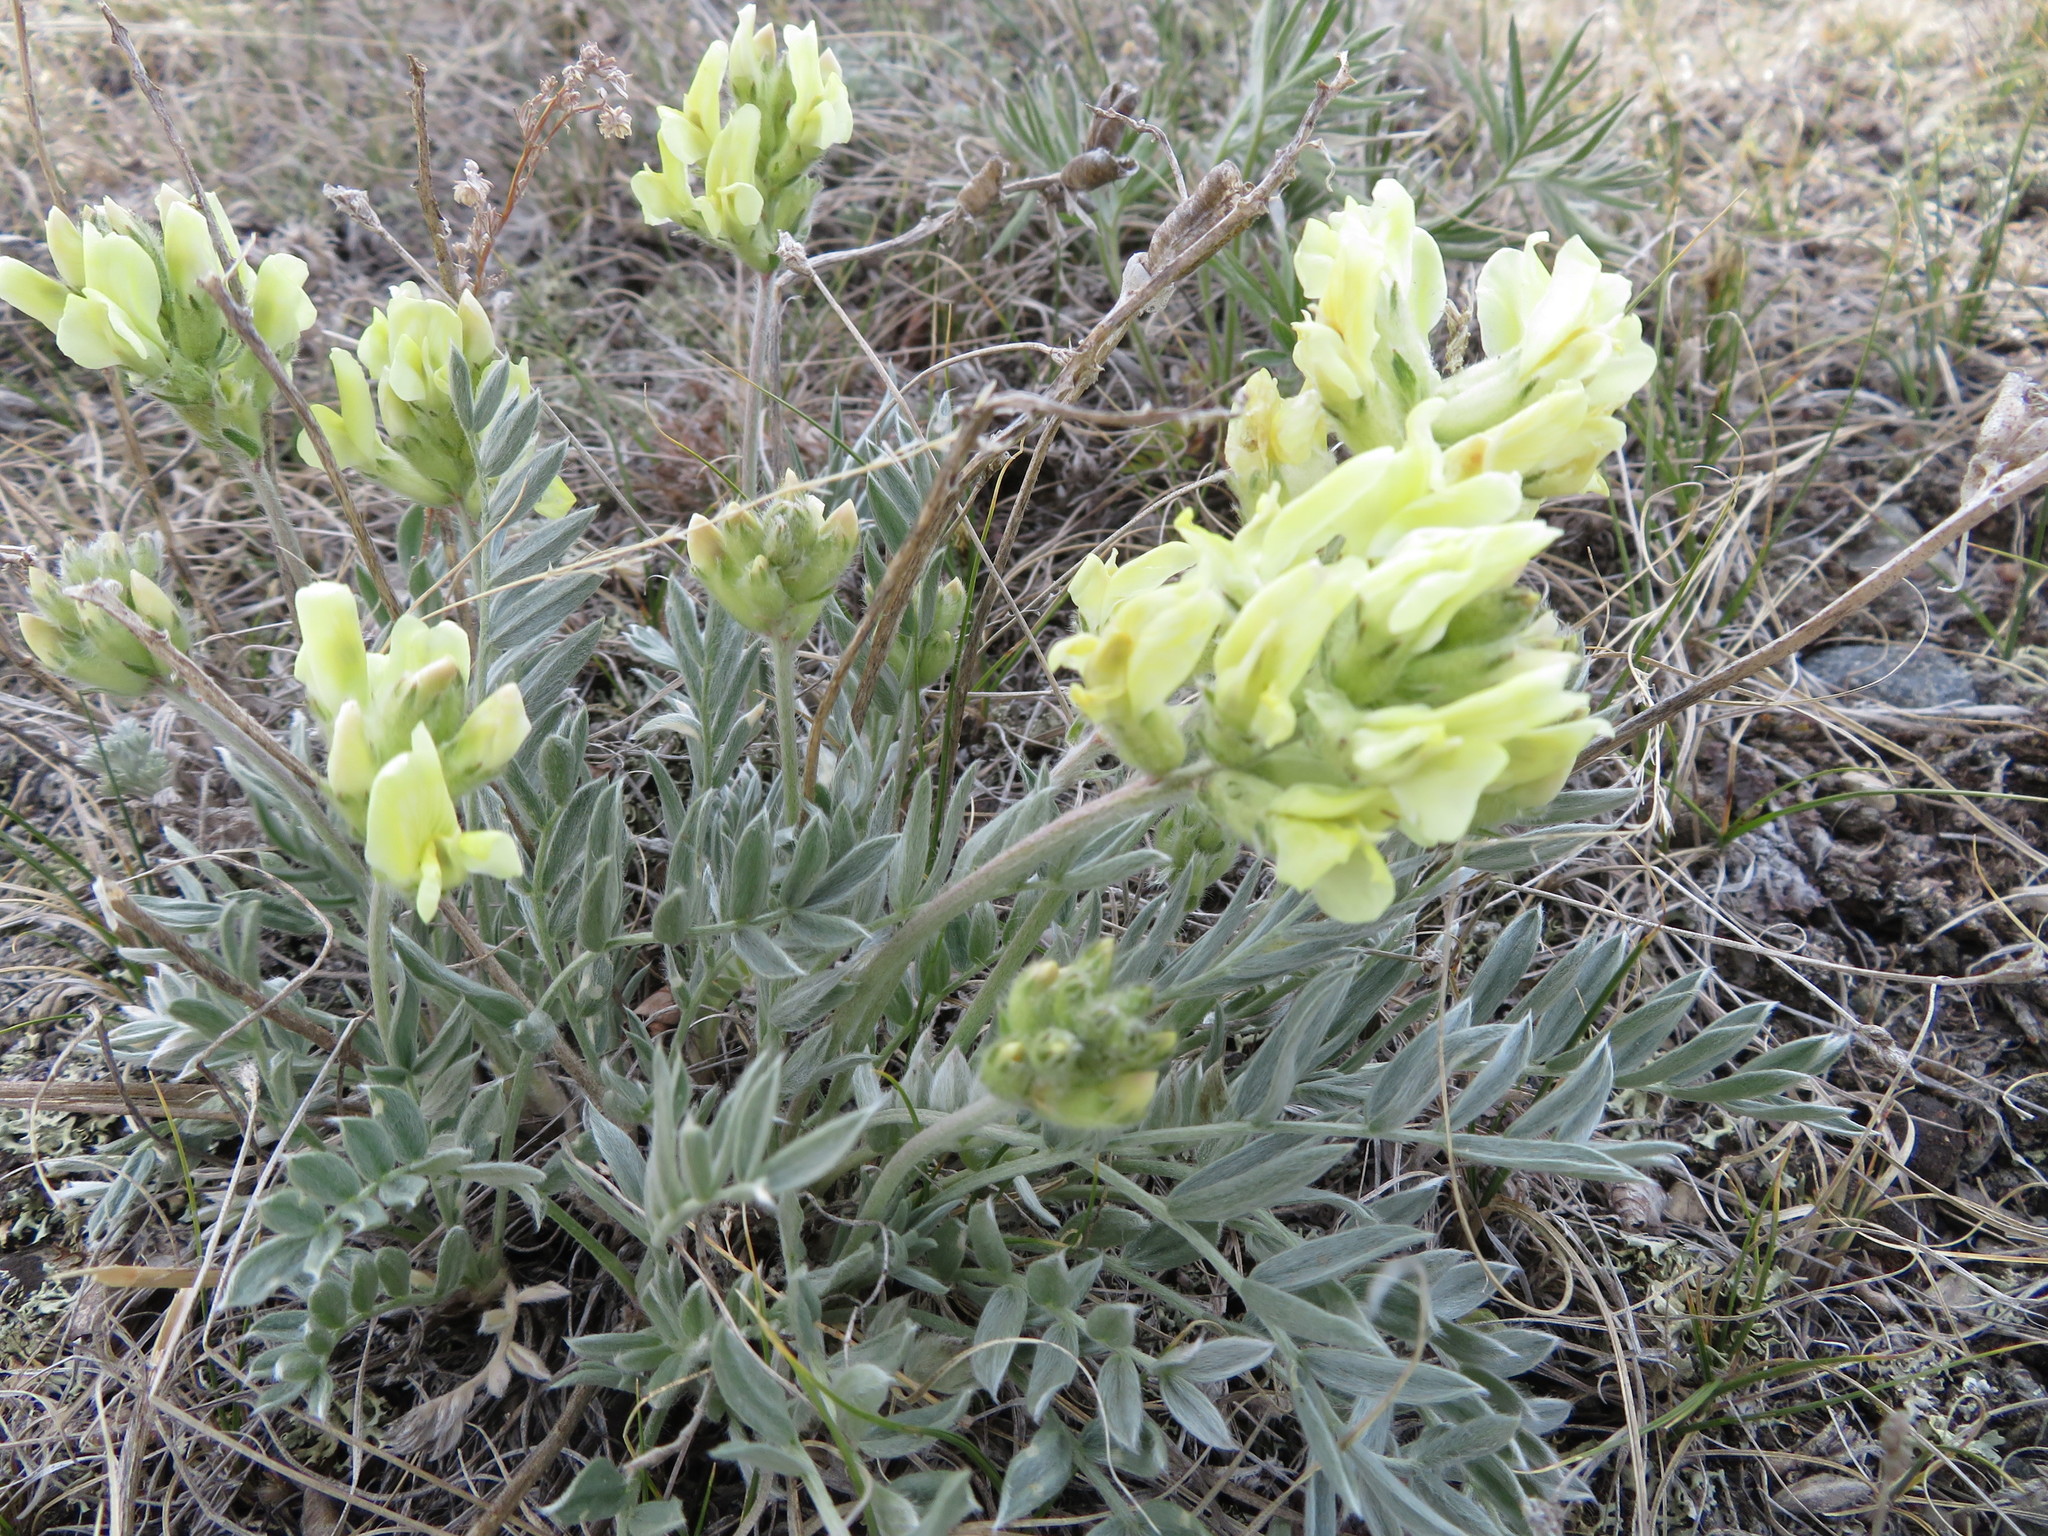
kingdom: Plantae
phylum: Tracheophyta
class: Magnoliopsida
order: Fabales
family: Fabaceae
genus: Oxytropis
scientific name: Oxytropis sericea
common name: Silky locoweed
